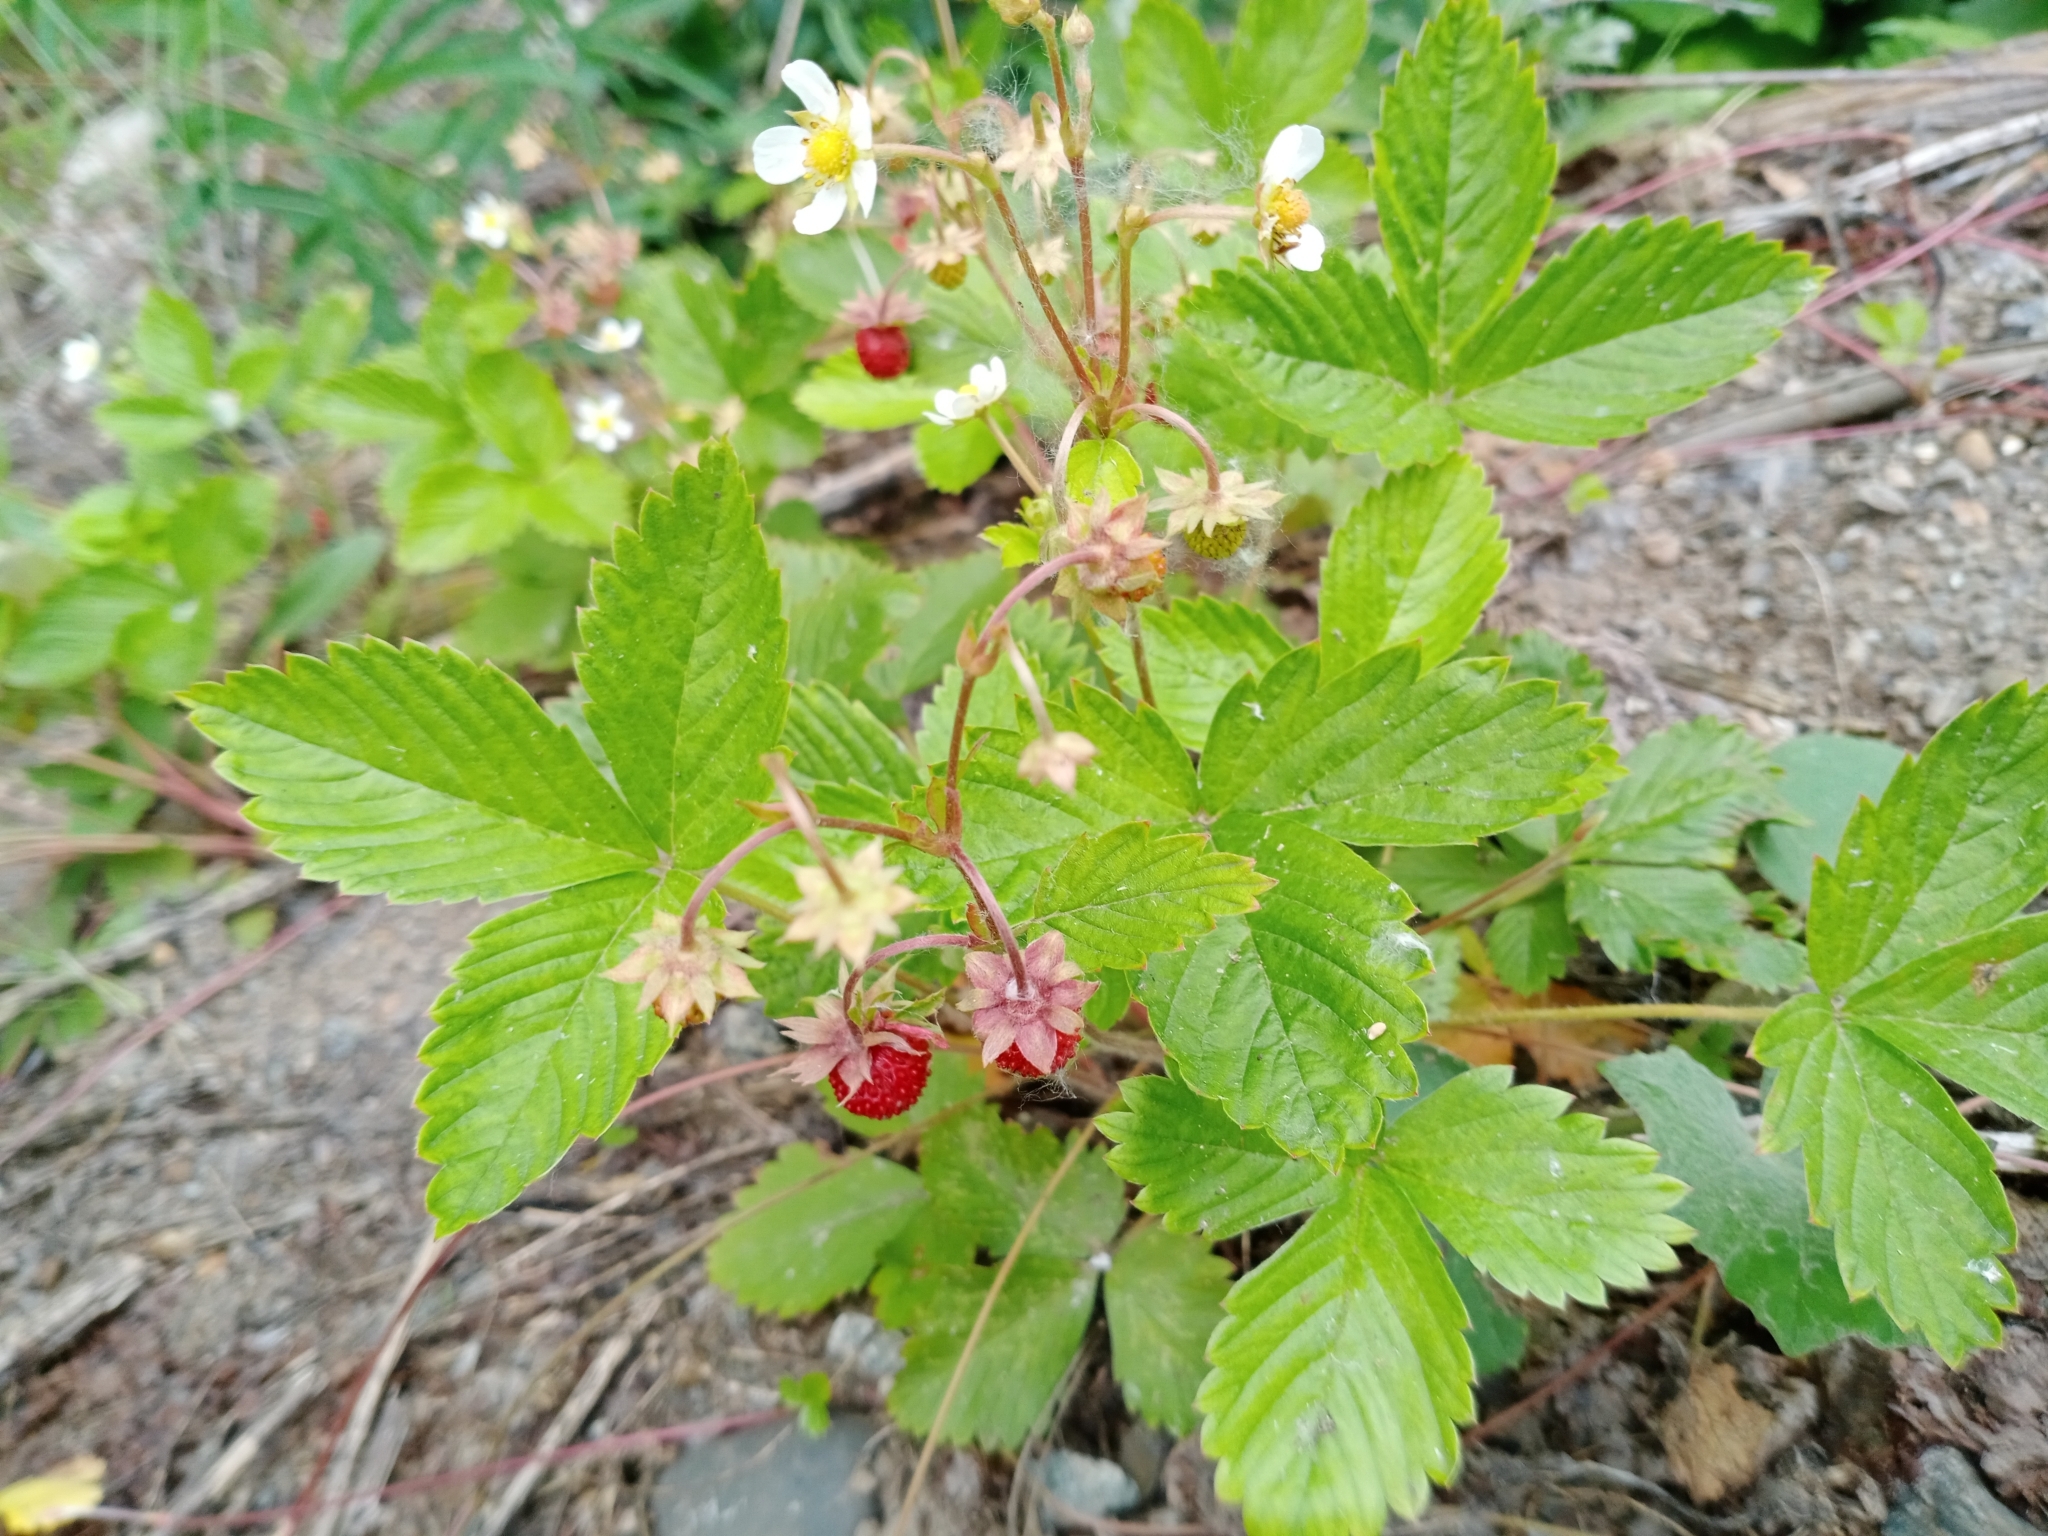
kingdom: Plantae
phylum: Tracheophyta
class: Magnoliopsida
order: Rosales
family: Rosaceae
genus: Fragaria
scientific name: Fragaria vesca
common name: Wild strawberry
